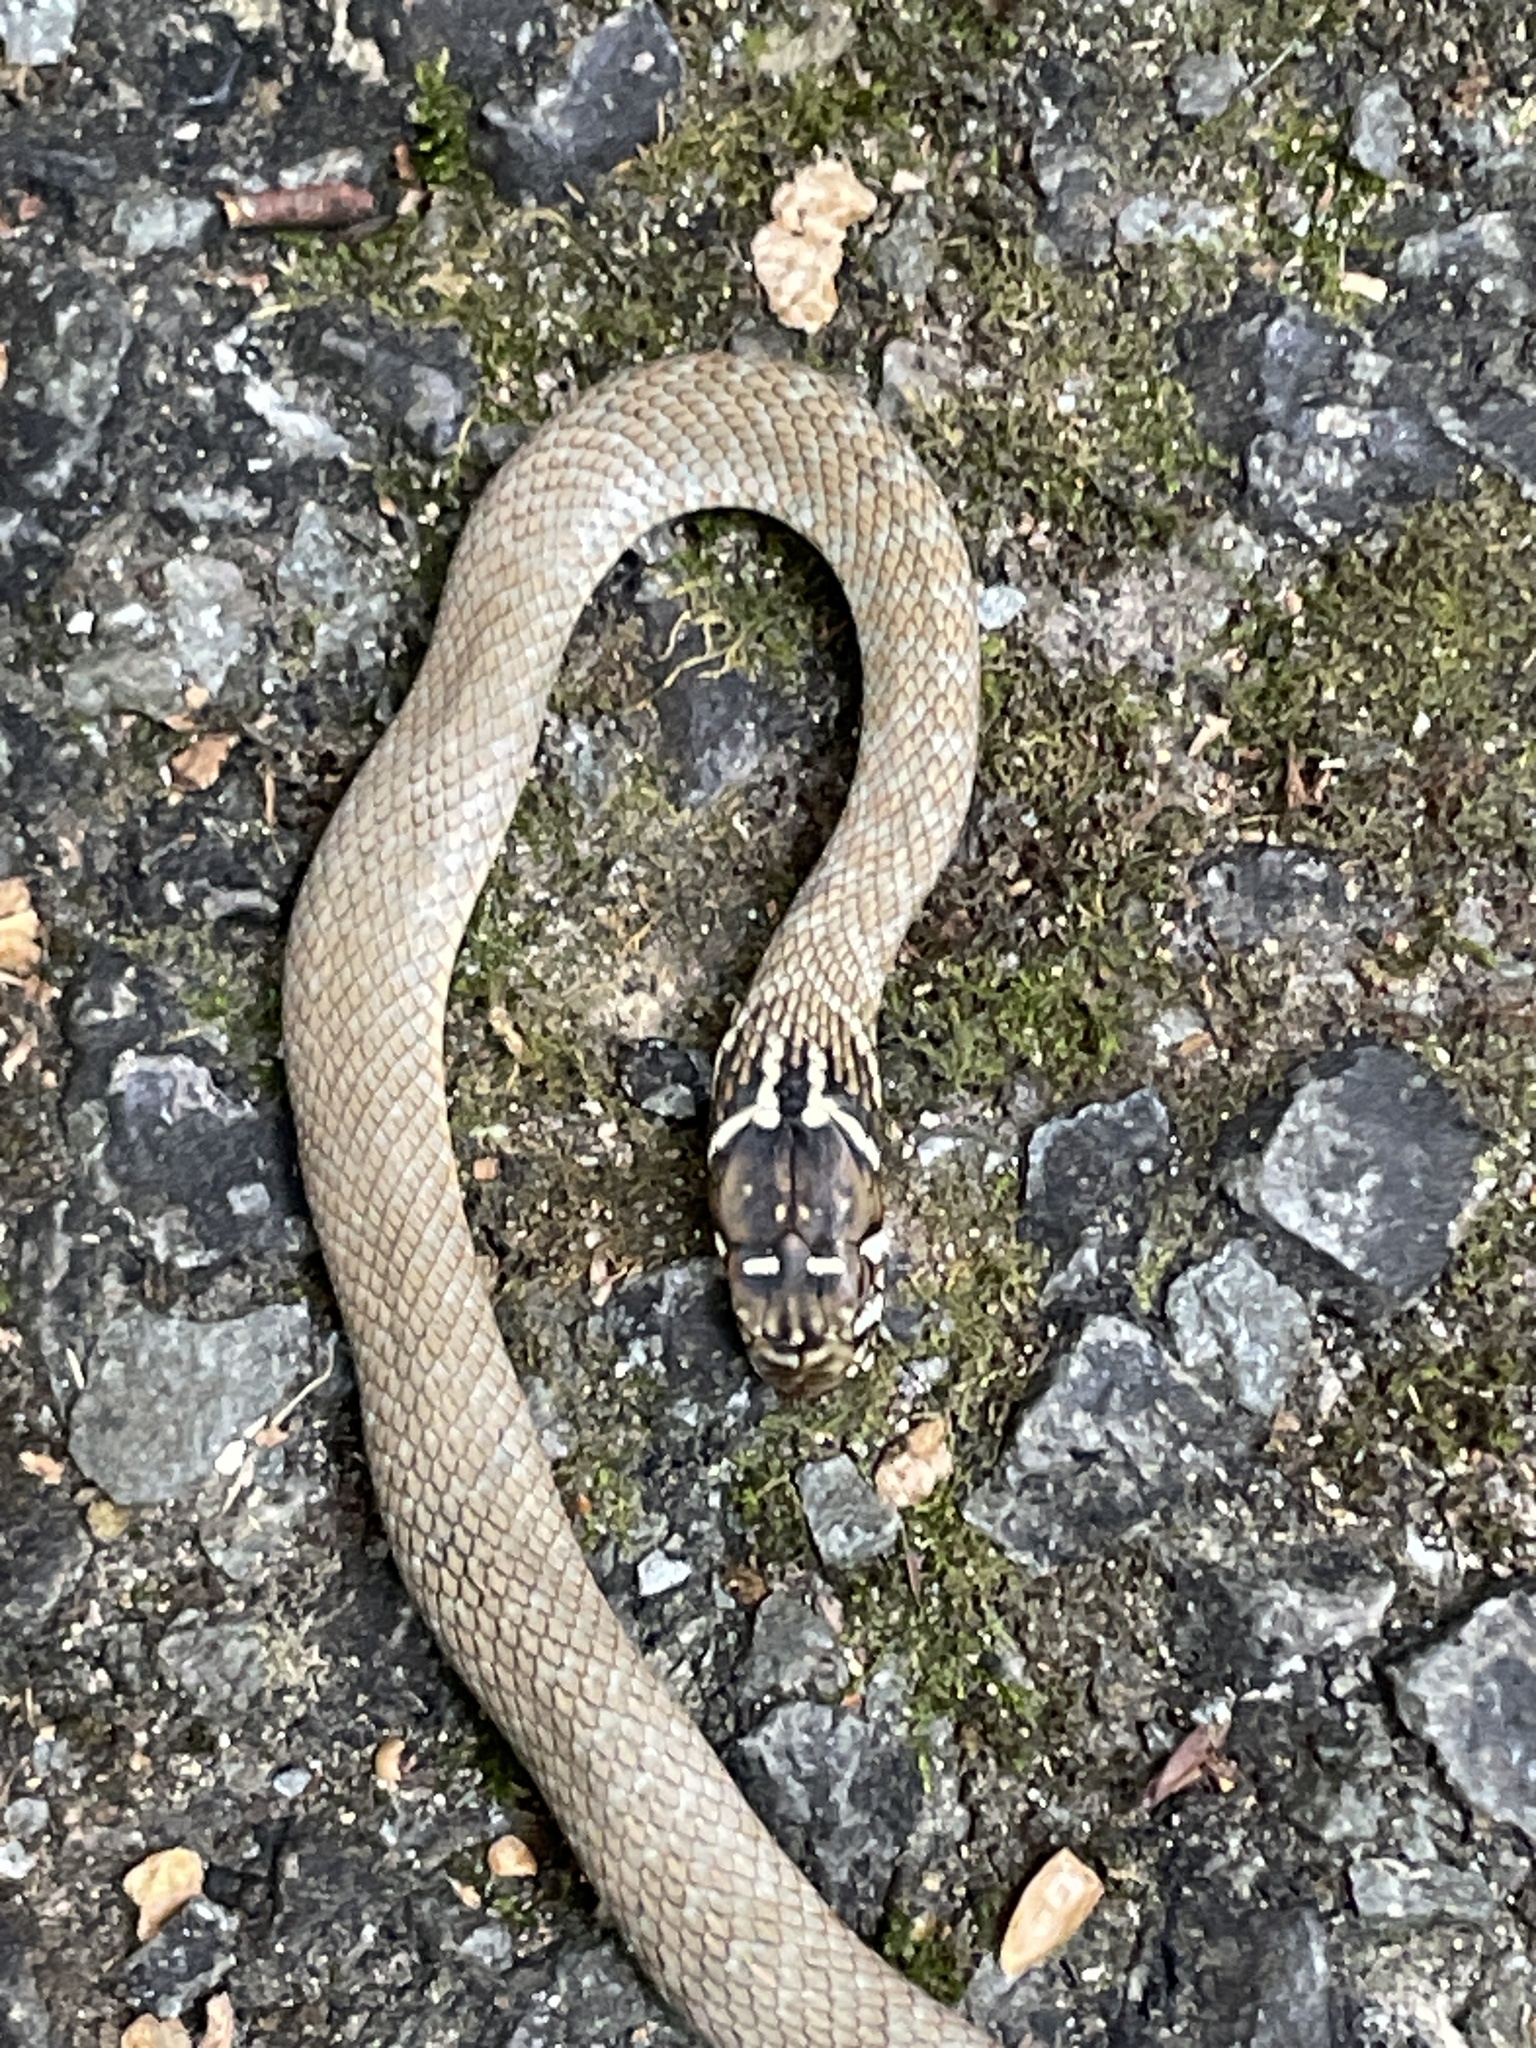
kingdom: Animalia
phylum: Chordata
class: Squamata
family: Colubridae
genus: Hierophis
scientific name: Hierophis viridiflavus
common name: Green whip snake
